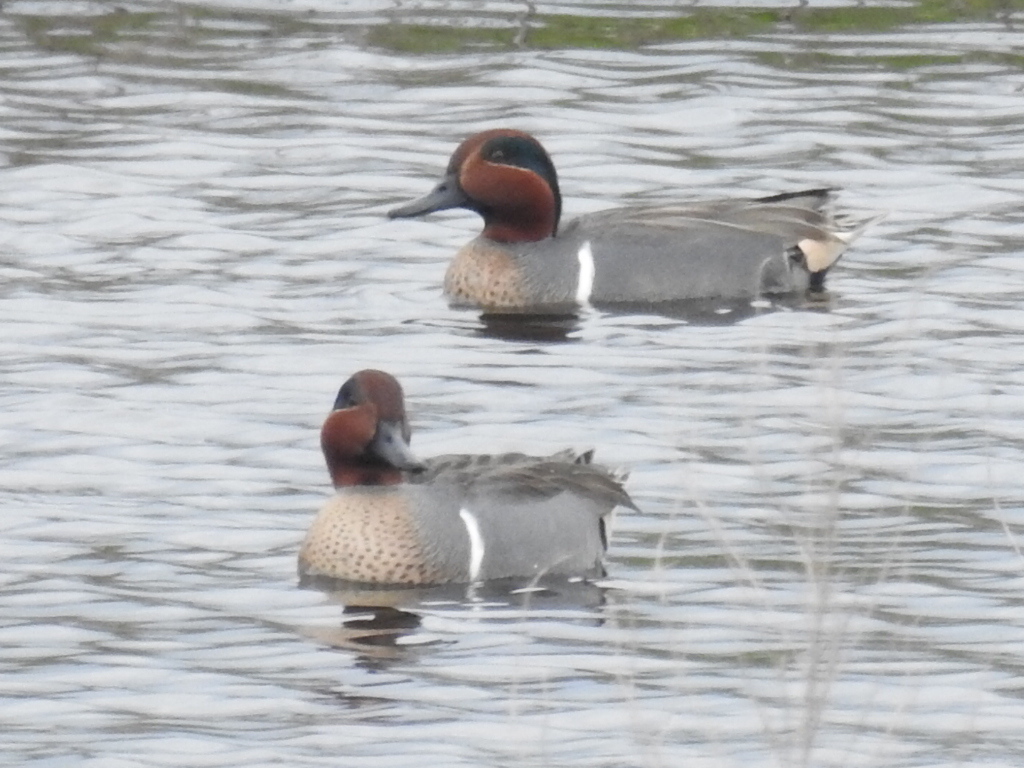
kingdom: Animalia
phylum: Chordata
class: Aves
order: Anseriformes
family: Anatidae
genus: Anas
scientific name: Anas crecca
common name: Eurasian teal
